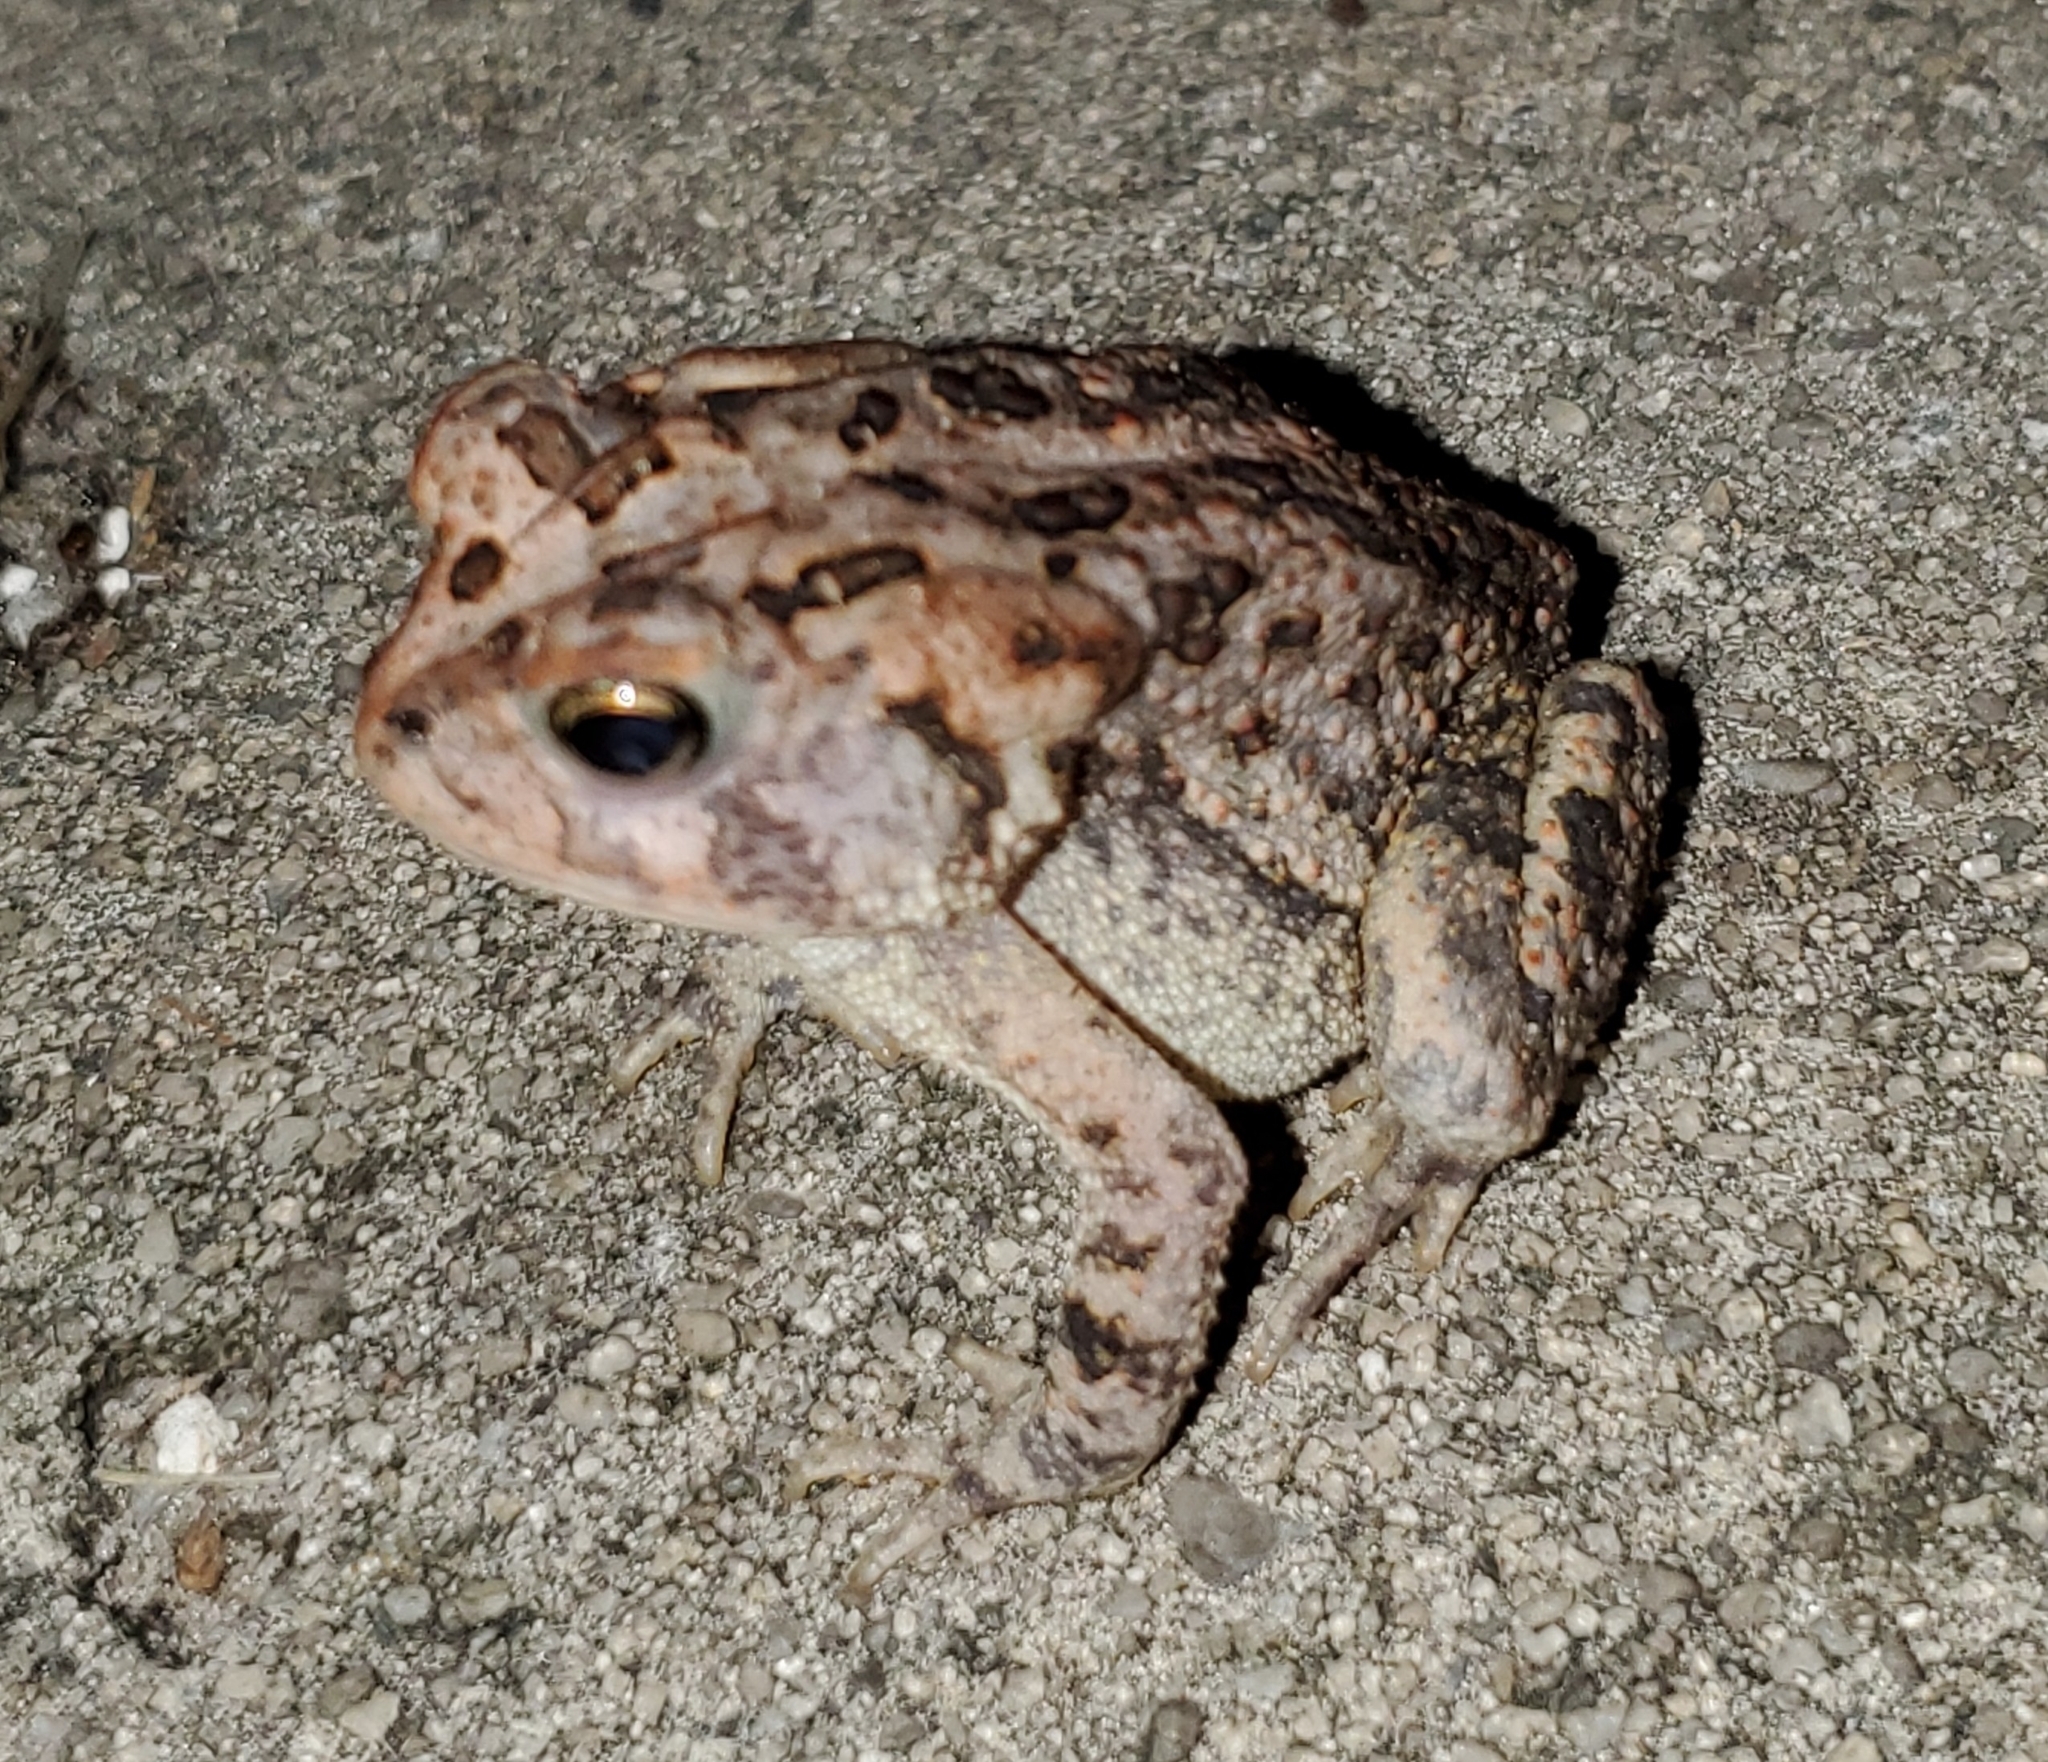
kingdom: Animalia
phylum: Chordata
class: Amphibia
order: Anura
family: Bufonidae
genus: Anaxyrus
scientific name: Anaxyrus terrestris
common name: Southern toad
